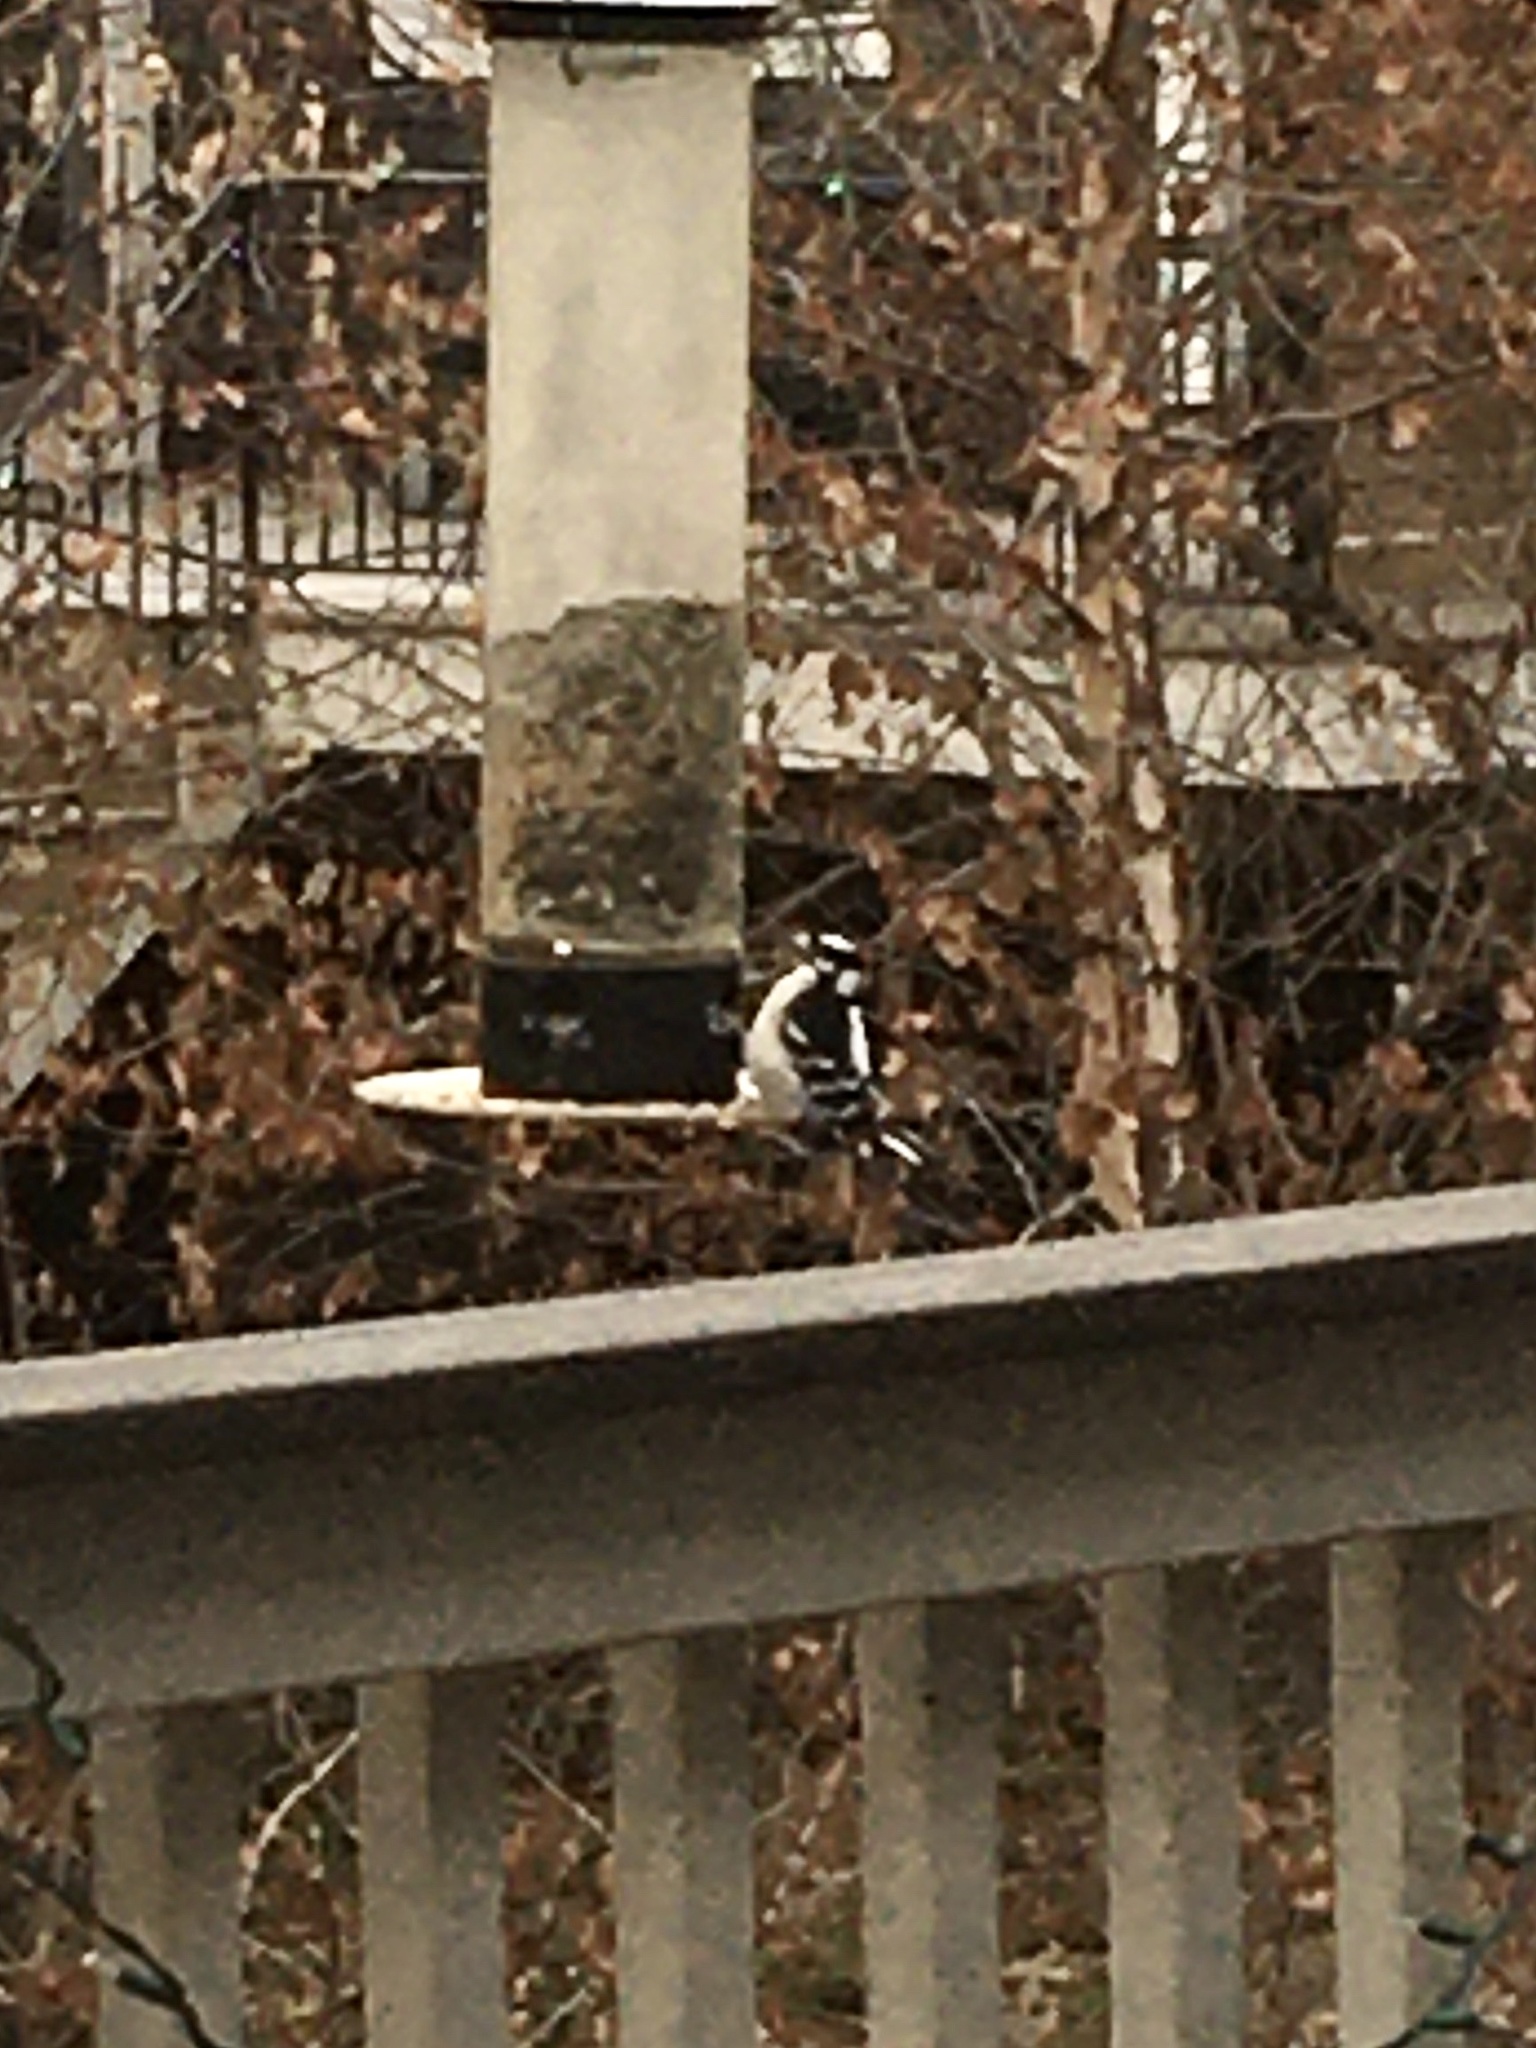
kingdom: Animalia
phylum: Chordata
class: Aves
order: Piciformes
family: Picidae
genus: Dryobates
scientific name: Dryobates pubescens
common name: Downy woodpecker
